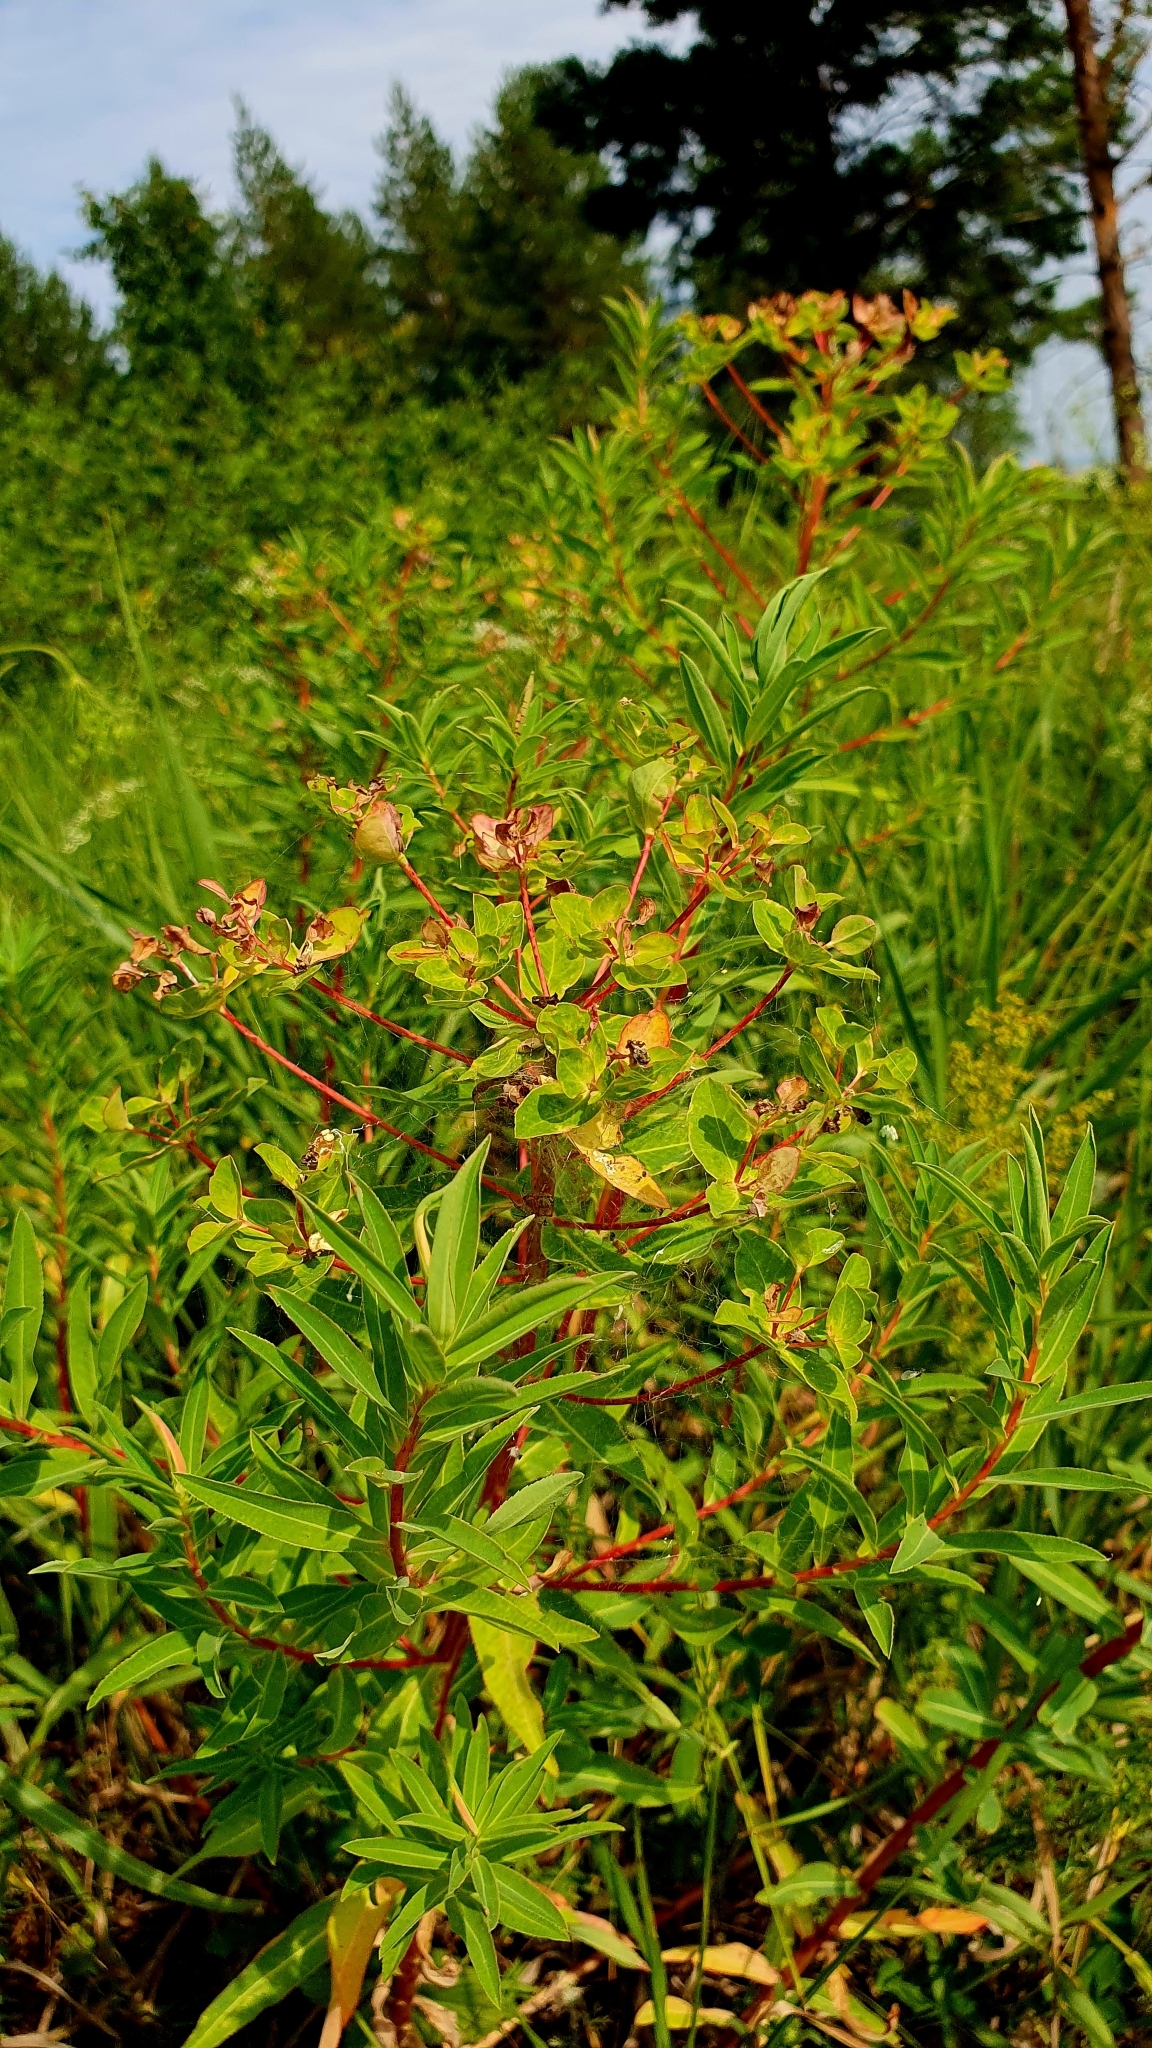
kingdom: Plantae
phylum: Tracheophyta
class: Magnoliopsida
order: Malpighiales
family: Euphorbiaceae
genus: Euphorbia
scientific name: Euphorbia semivillosa
